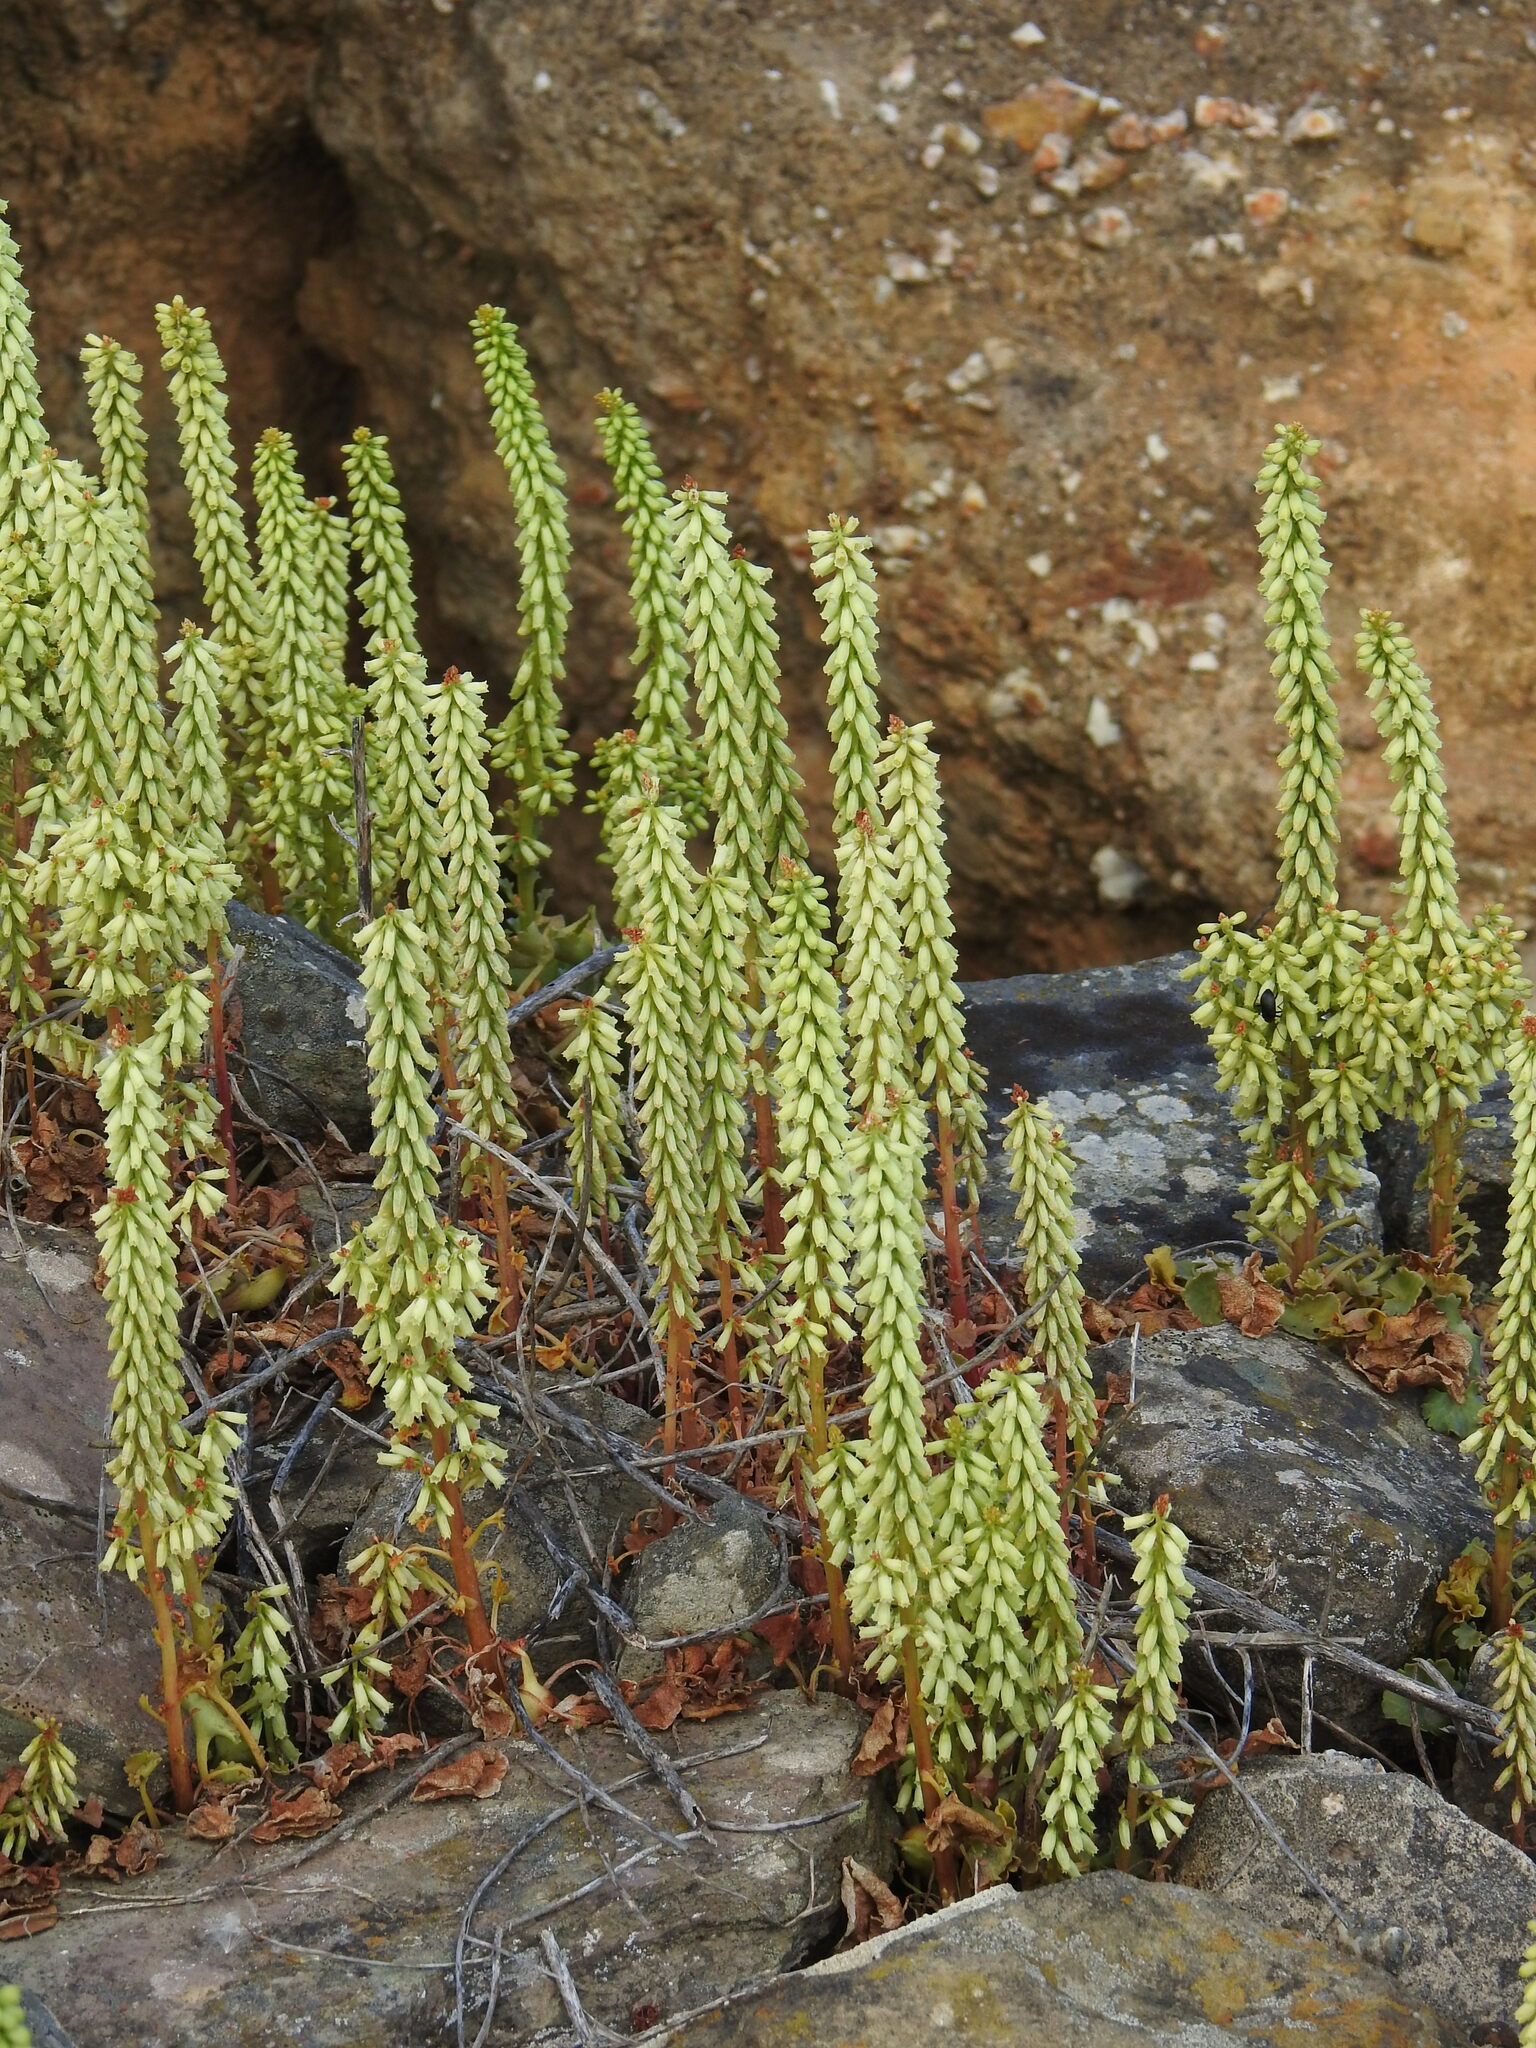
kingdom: Plantae
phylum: Tracheophyta
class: Magnoliopsida
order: Saxifragales
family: Crassulaceae
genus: Umbilicus
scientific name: Umbilicus rupestris
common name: Navelwort
